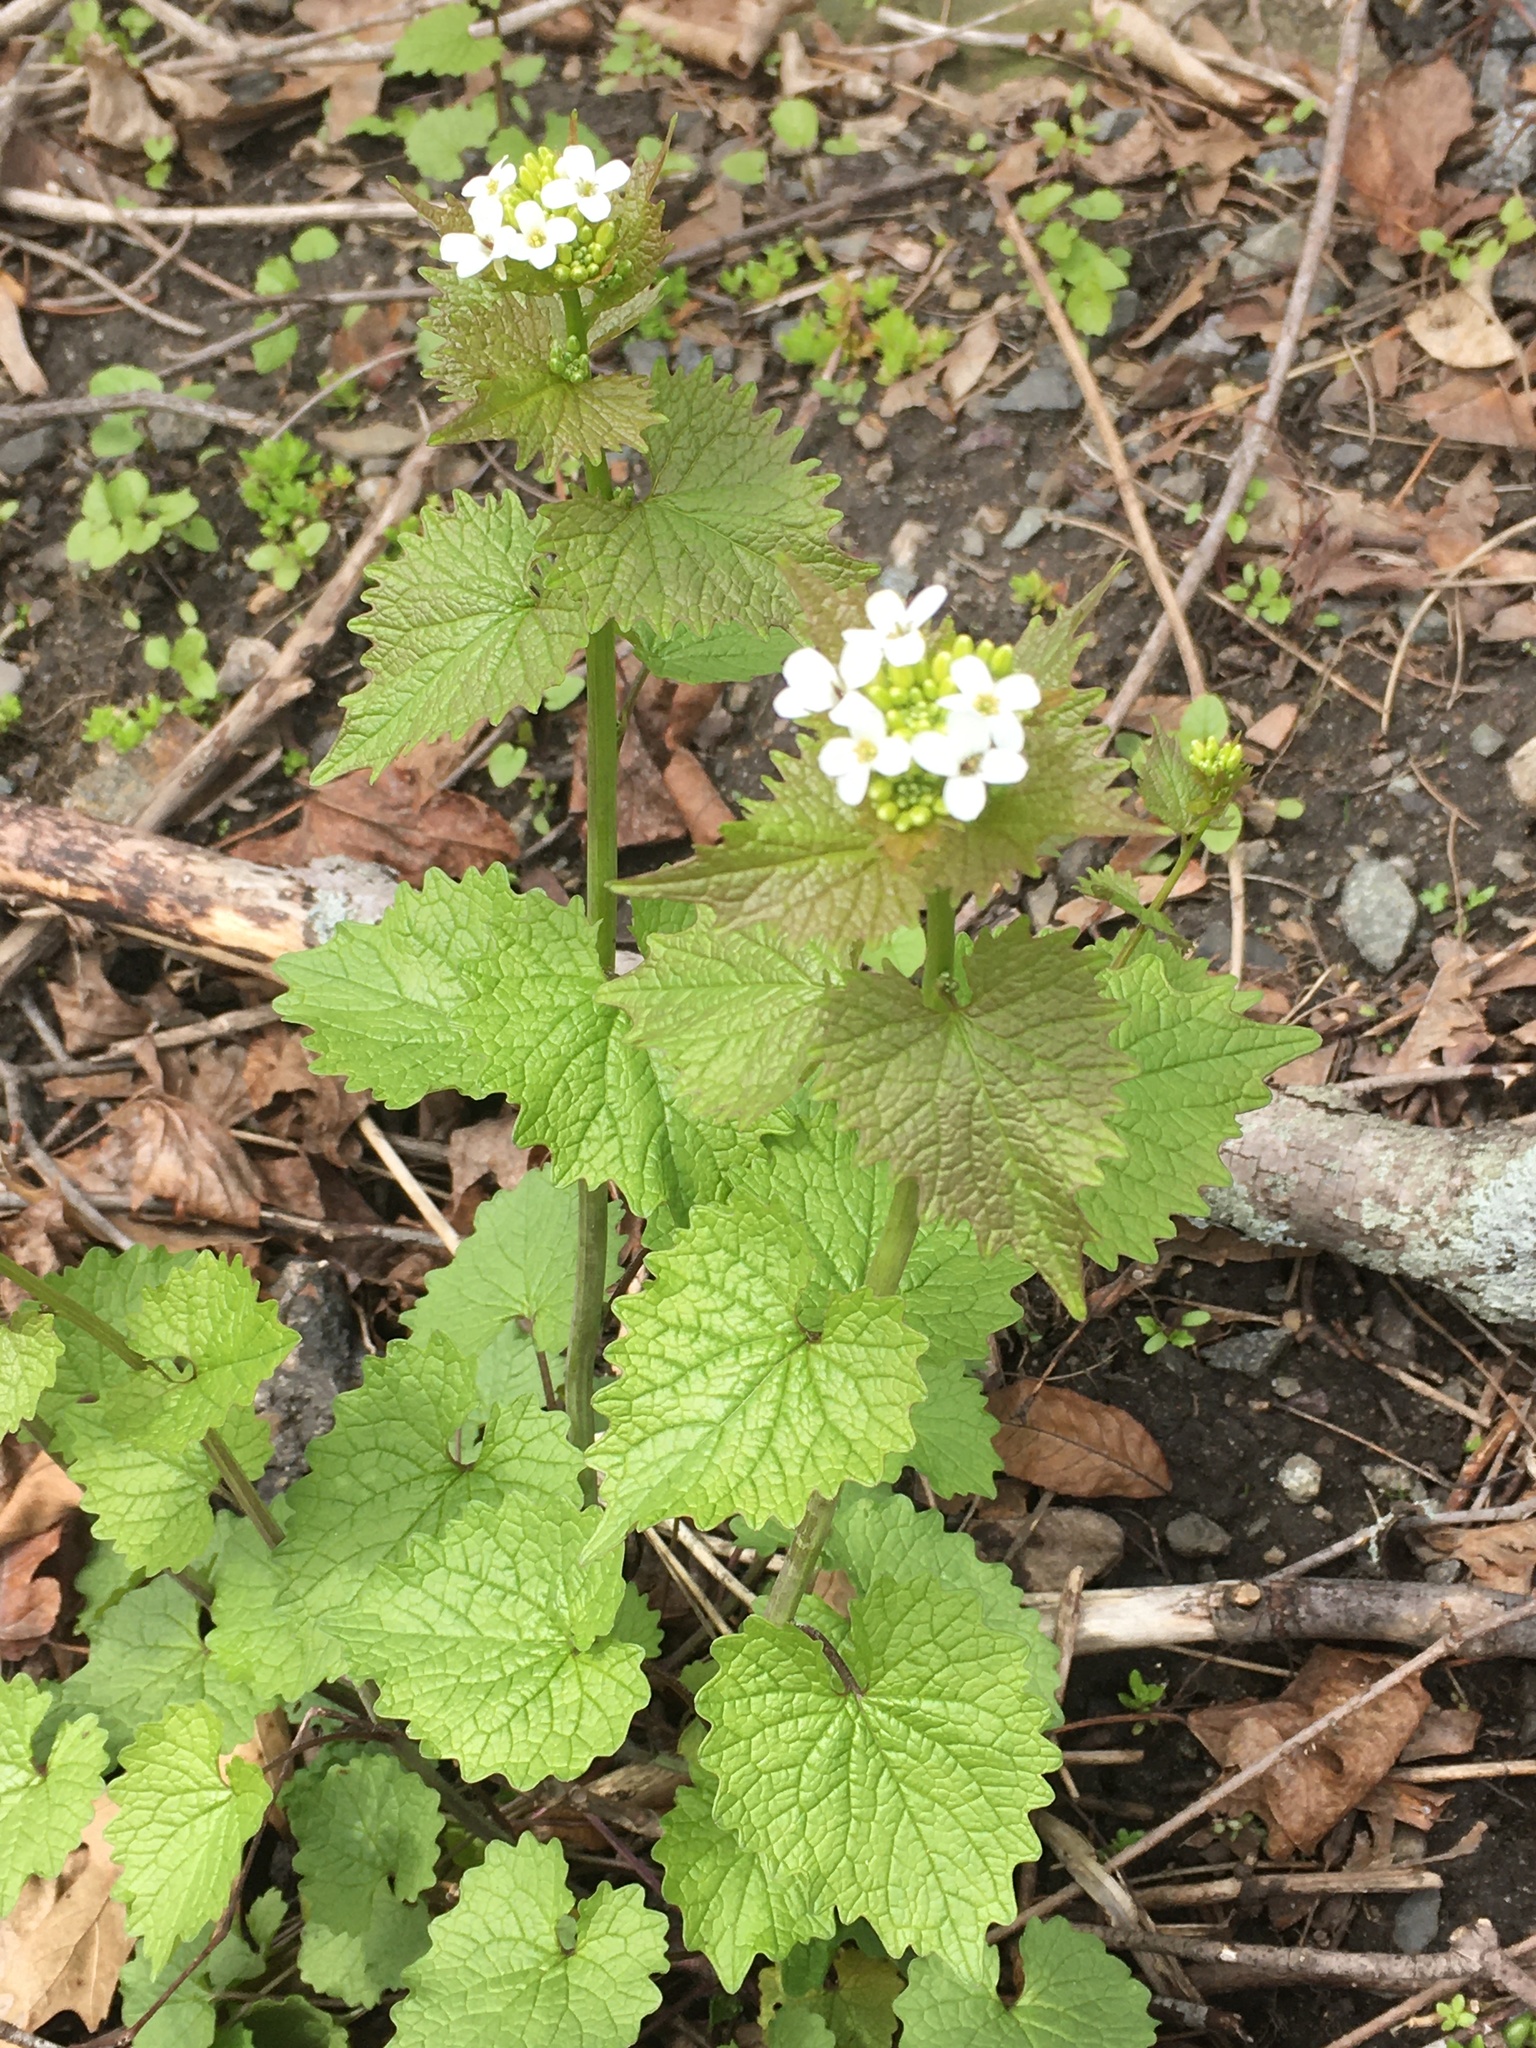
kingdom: Plantae
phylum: Tracheophyta
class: Magnoliopsida
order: Brassicales
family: Brassicaceae
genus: Alliaria
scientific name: Alliaria petiolata
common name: Garlic mustard
